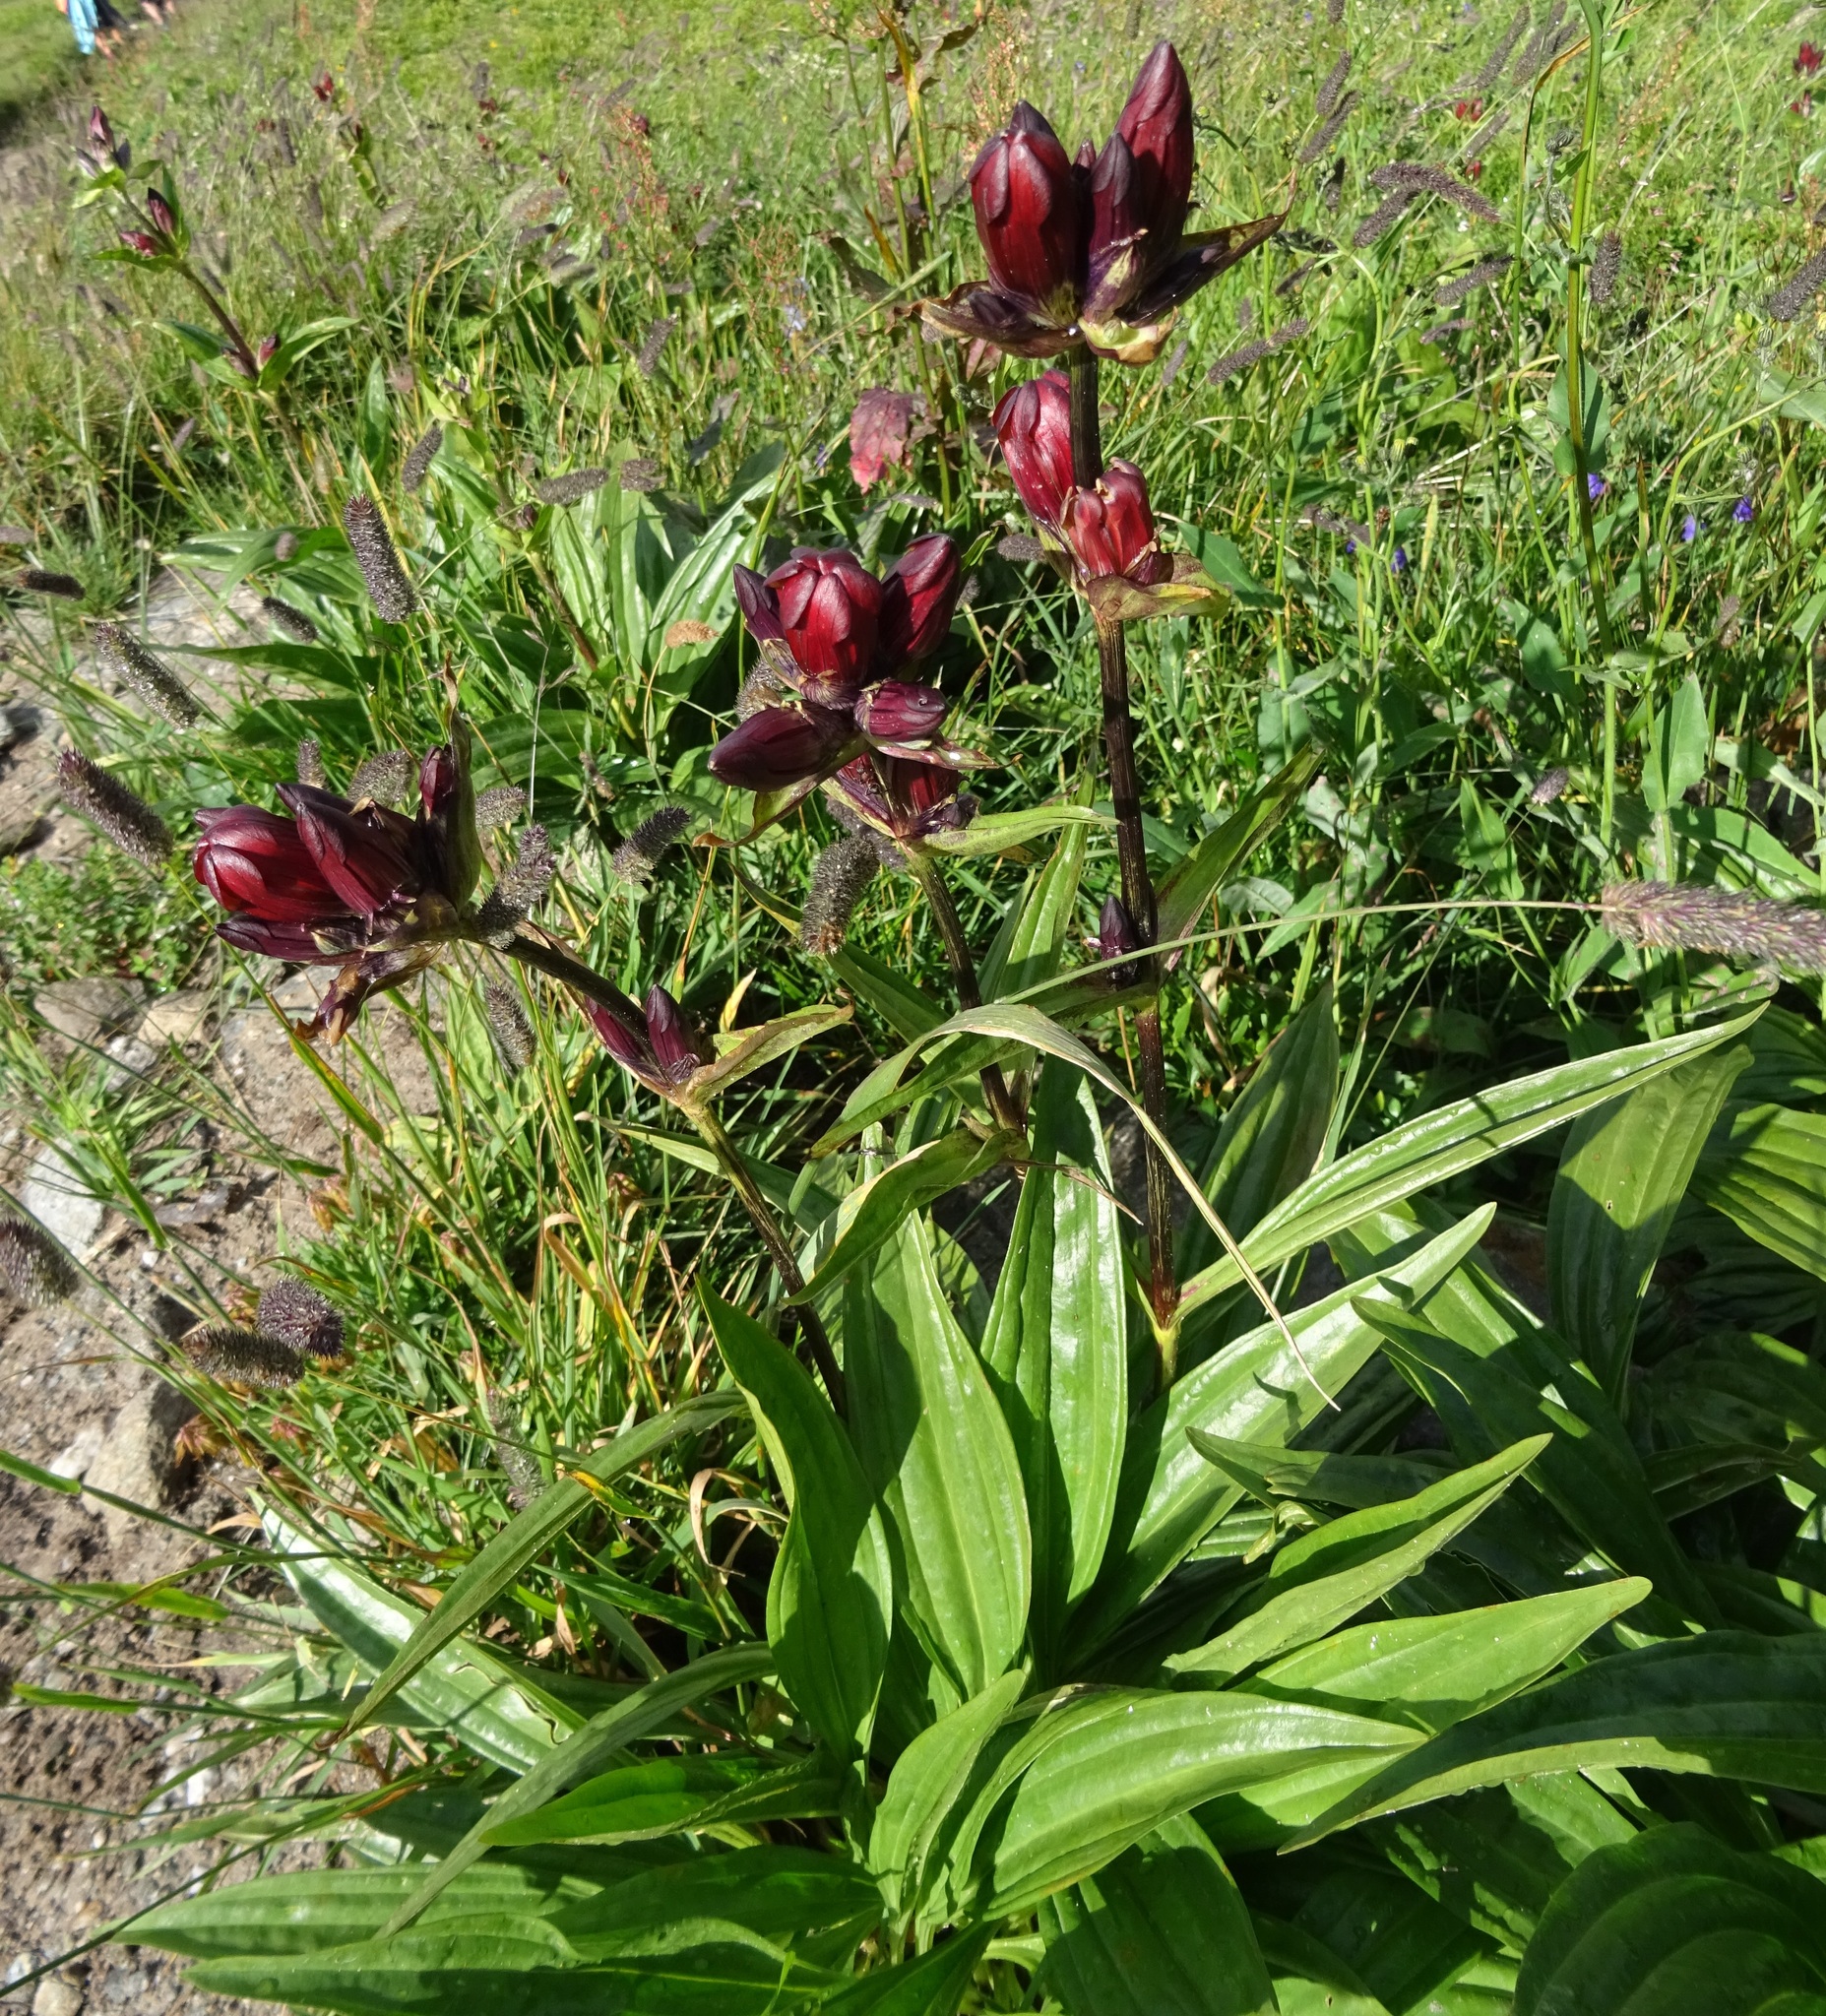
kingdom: Plantae
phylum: Tracheophyta
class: Magnoliopsida
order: Gentianales
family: Gentianaceae
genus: Gentiana
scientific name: Gentiana purpurea
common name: Purple gentian
